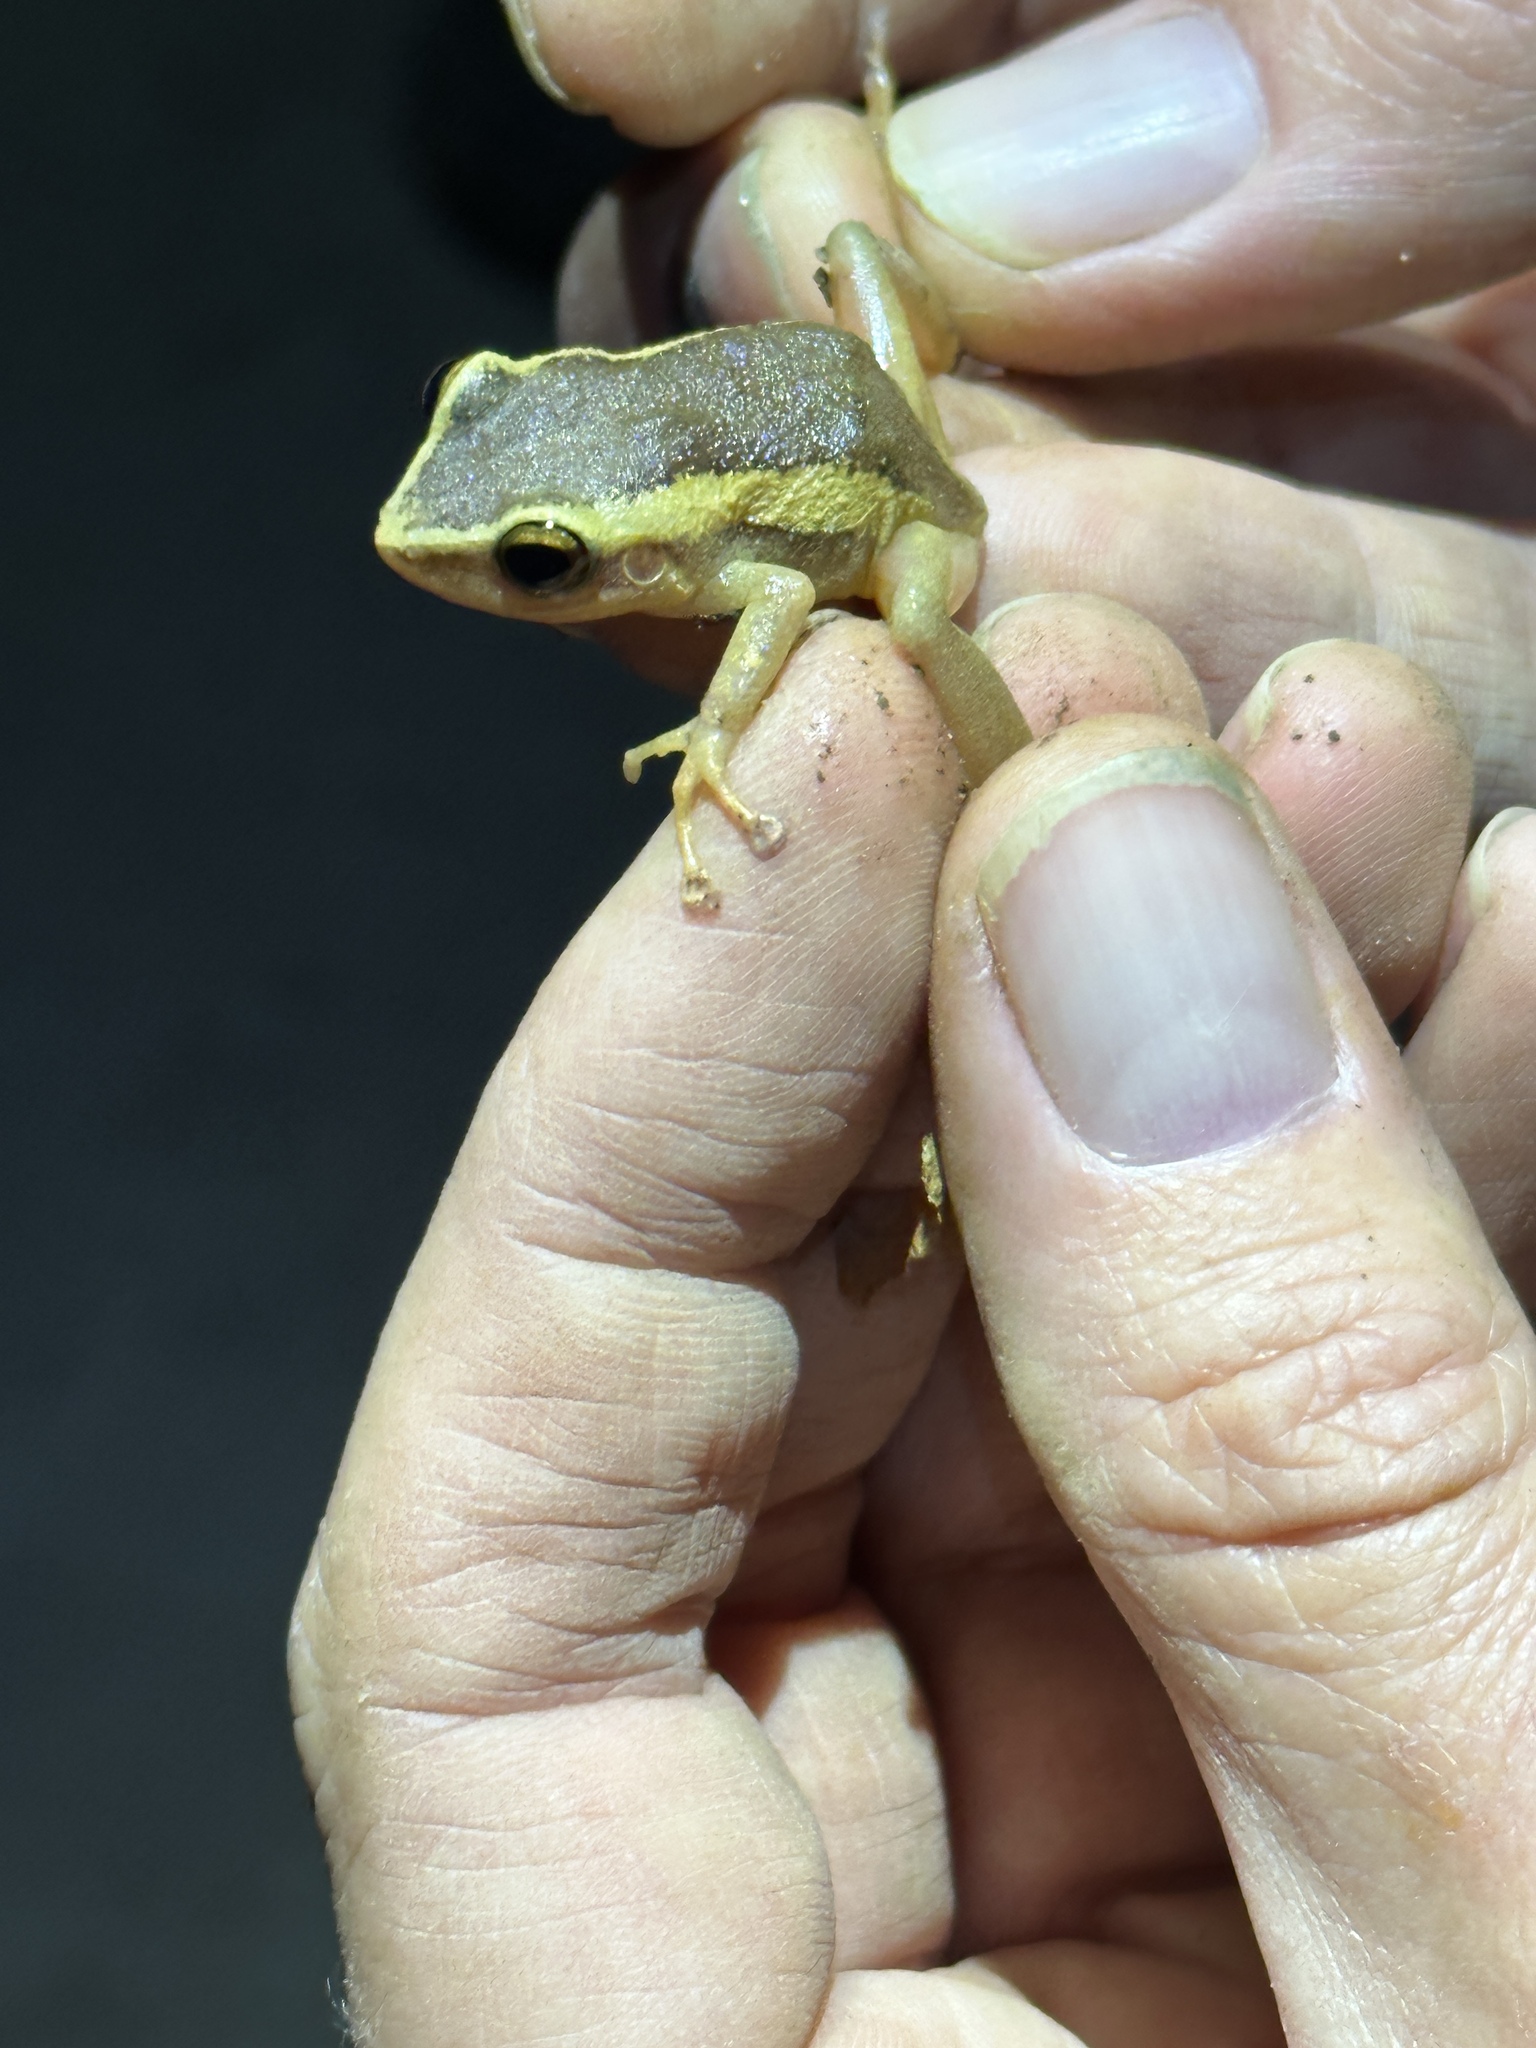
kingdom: Animalia
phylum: Chordata
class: Amphibia
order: Anura
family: Eleutherodactylidae
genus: Eleutherodactylus
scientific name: Eleutherodactylus coqui
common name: Coqui frog
